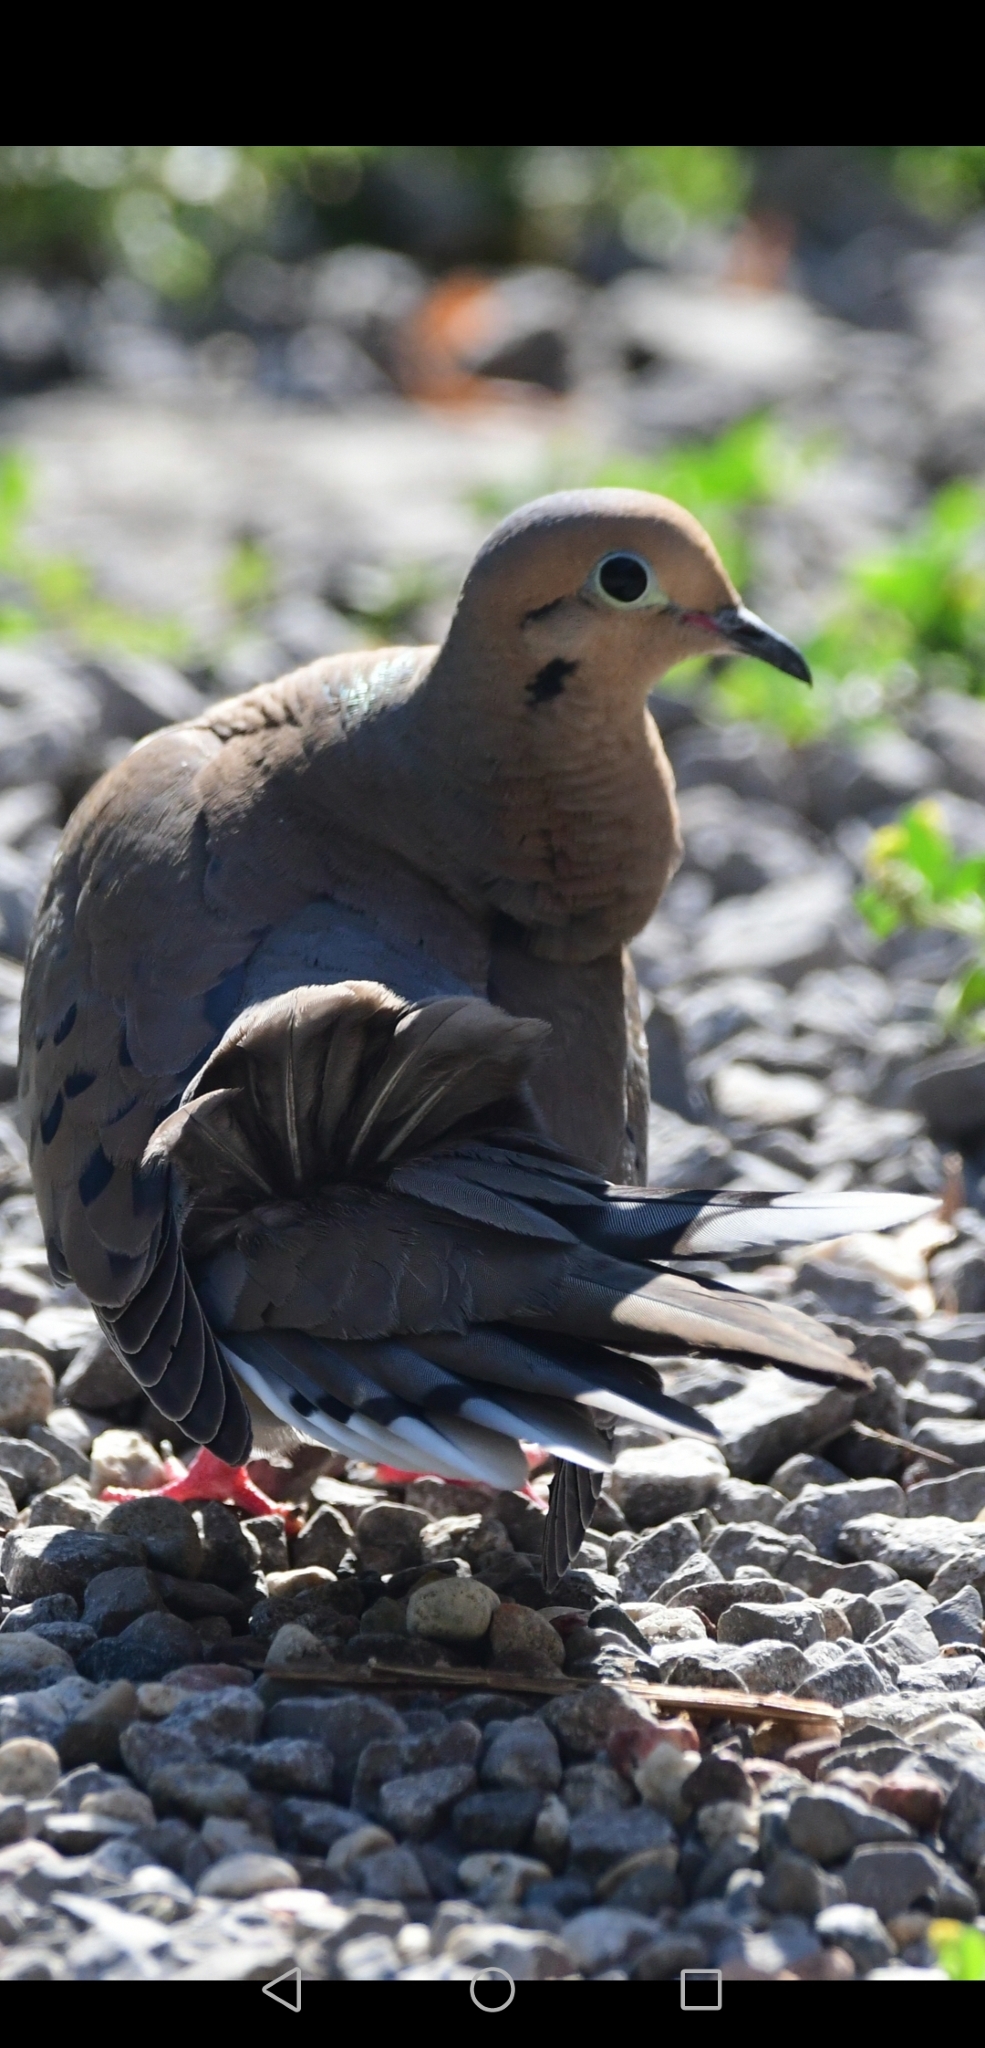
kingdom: Animalia
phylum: Chordata
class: Aves
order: Columbiformes
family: Columbidae
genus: Zenaida
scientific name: Zenaida macroura
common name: Mourning dove
